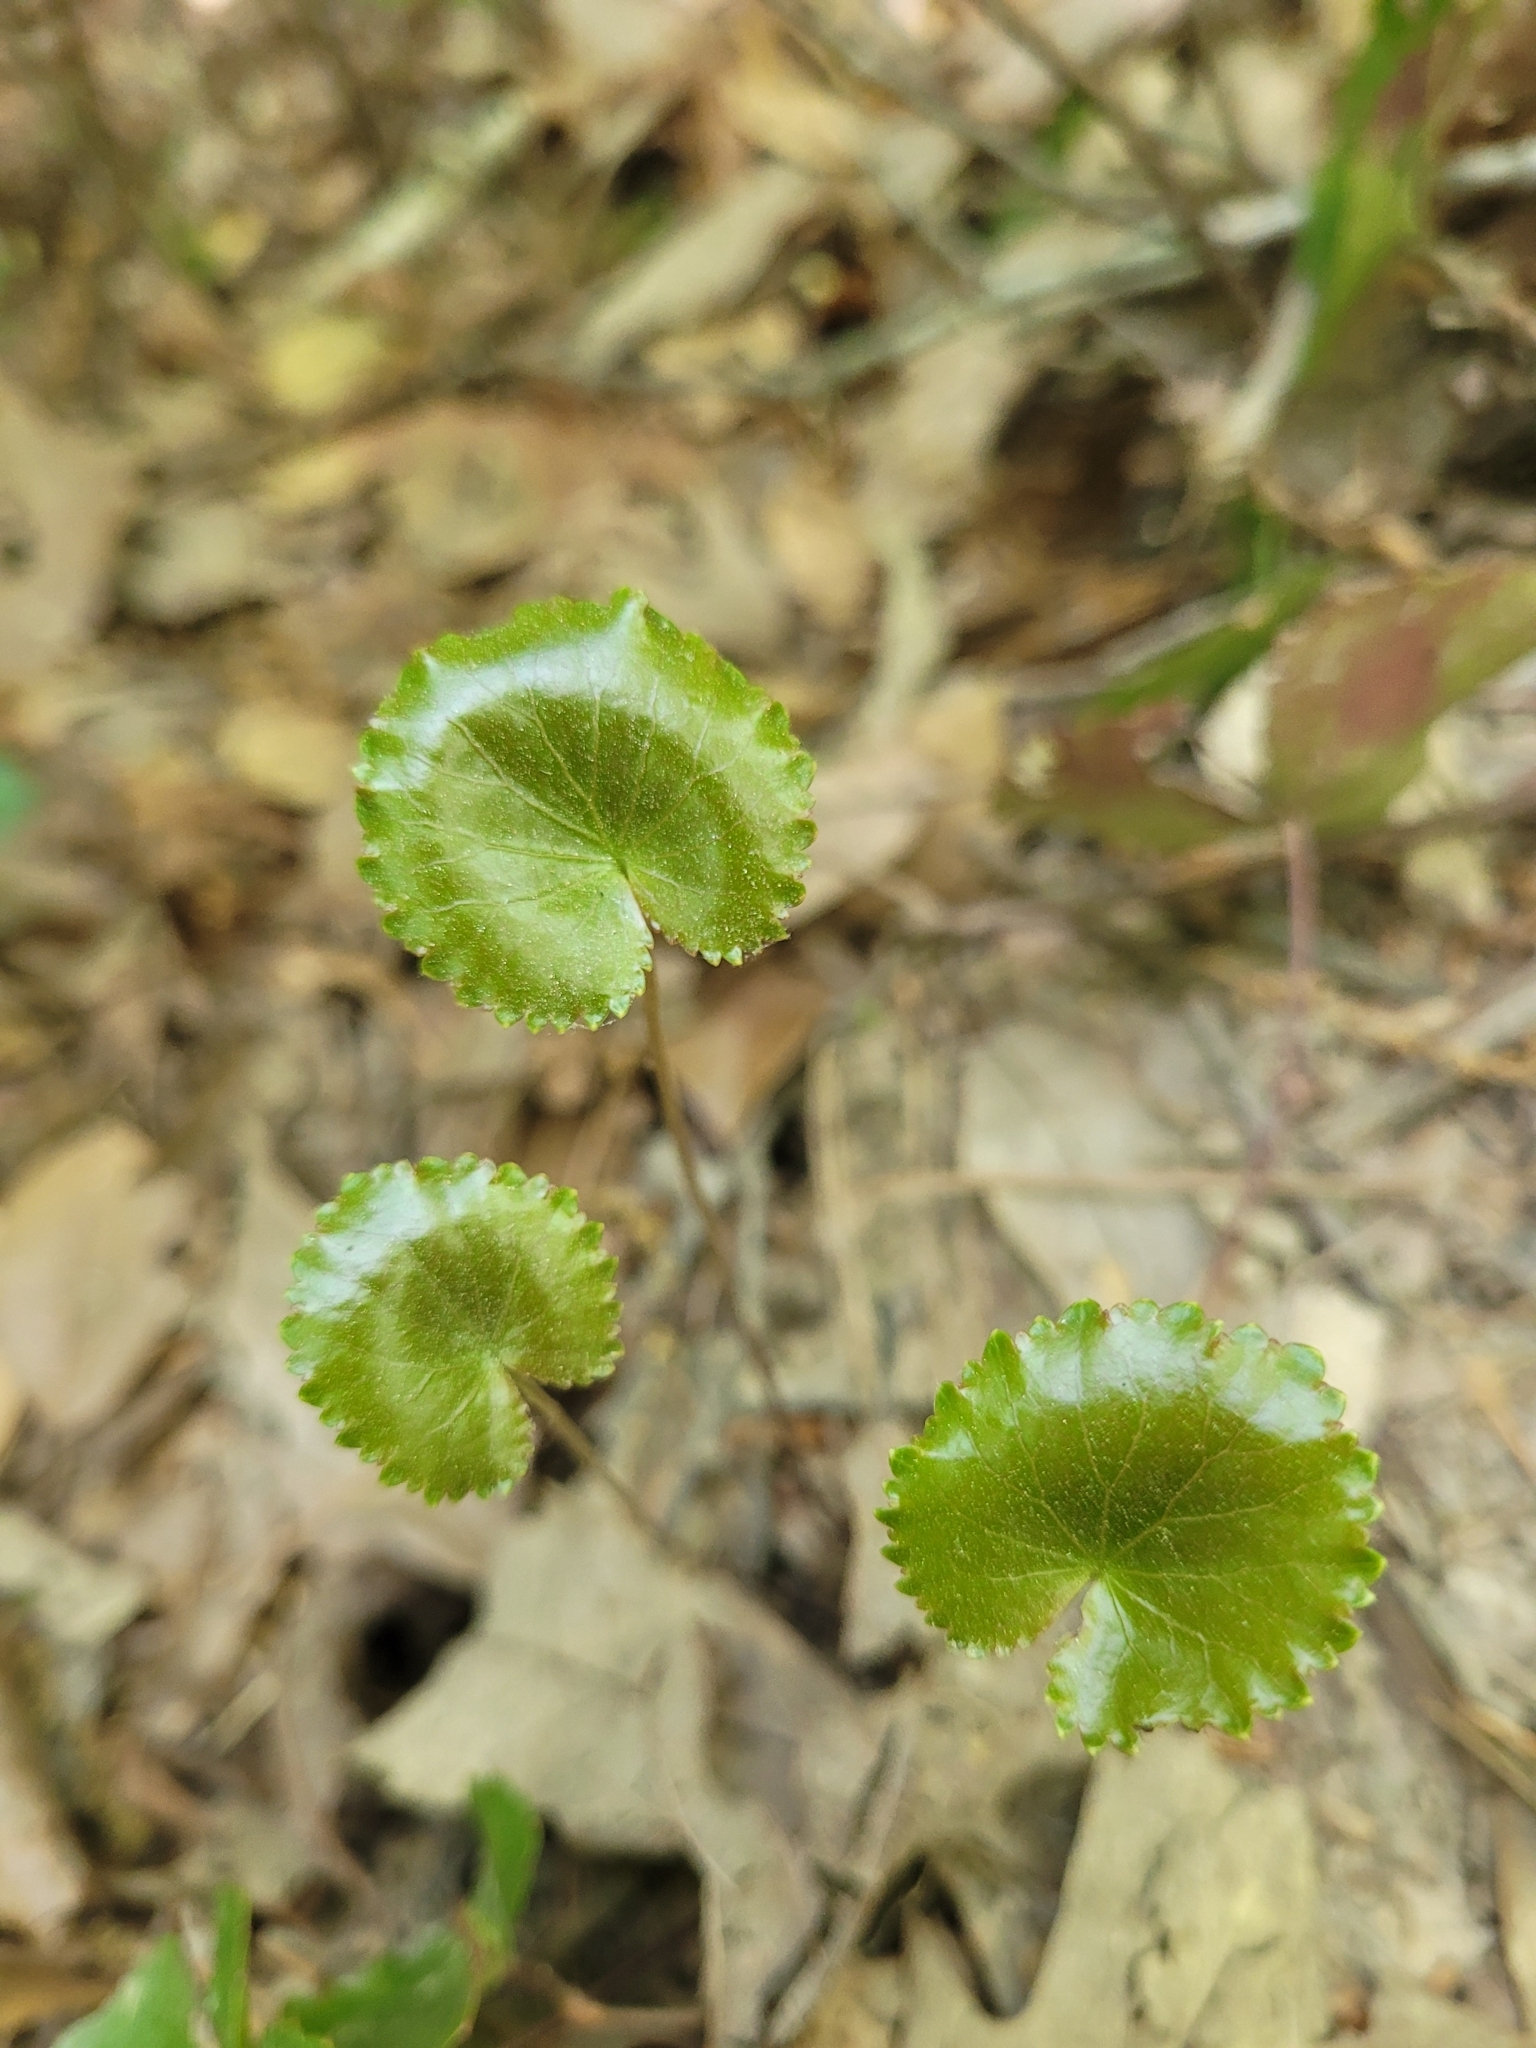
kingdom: Plantae
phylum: Tracheophyta
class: Magnoliopsida
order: Ericales
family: Diapensiaceae
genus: Galax
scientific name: Galax urceolata
